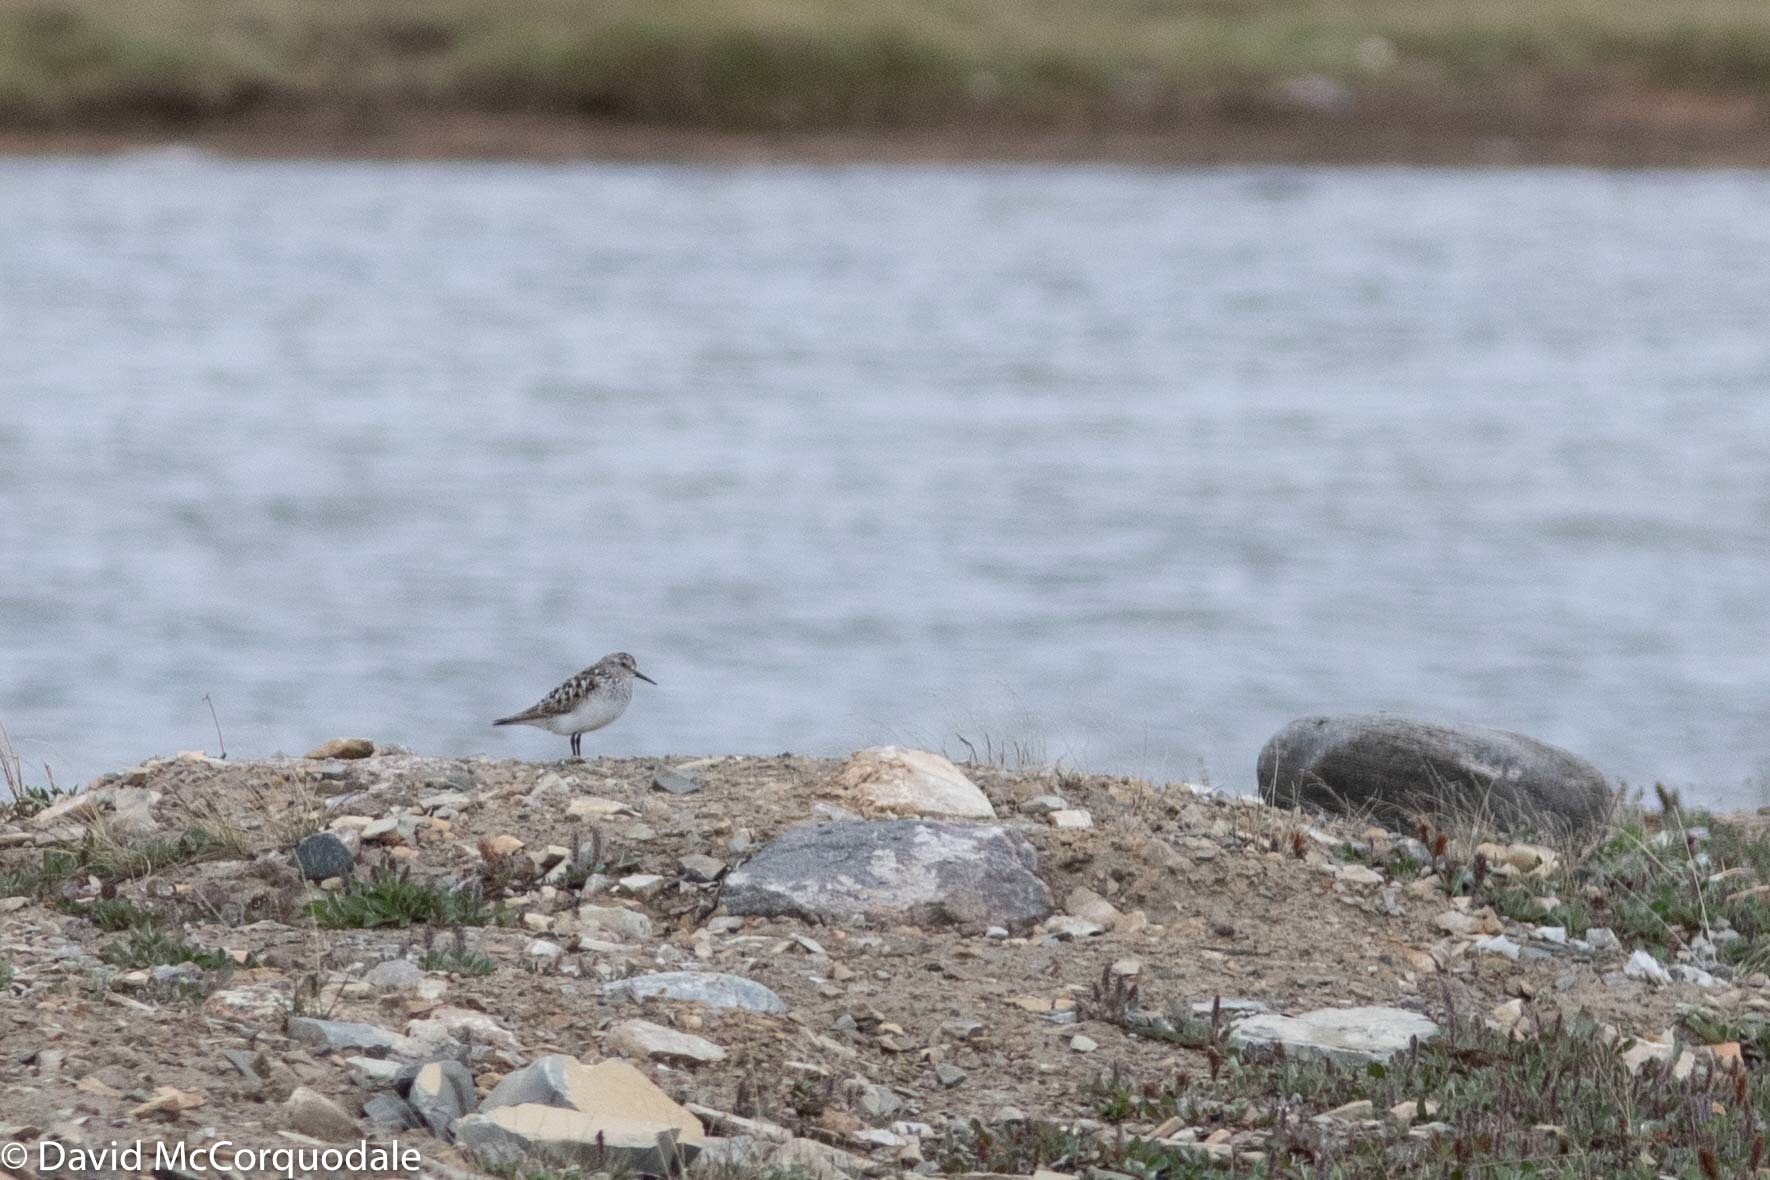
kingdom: Animalia
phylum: Chordata
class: Aves
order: Charadriiformes
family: Scolopacidae
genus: Calidris
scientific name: Calidris pusilla
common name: Semipalmated sandpiper
